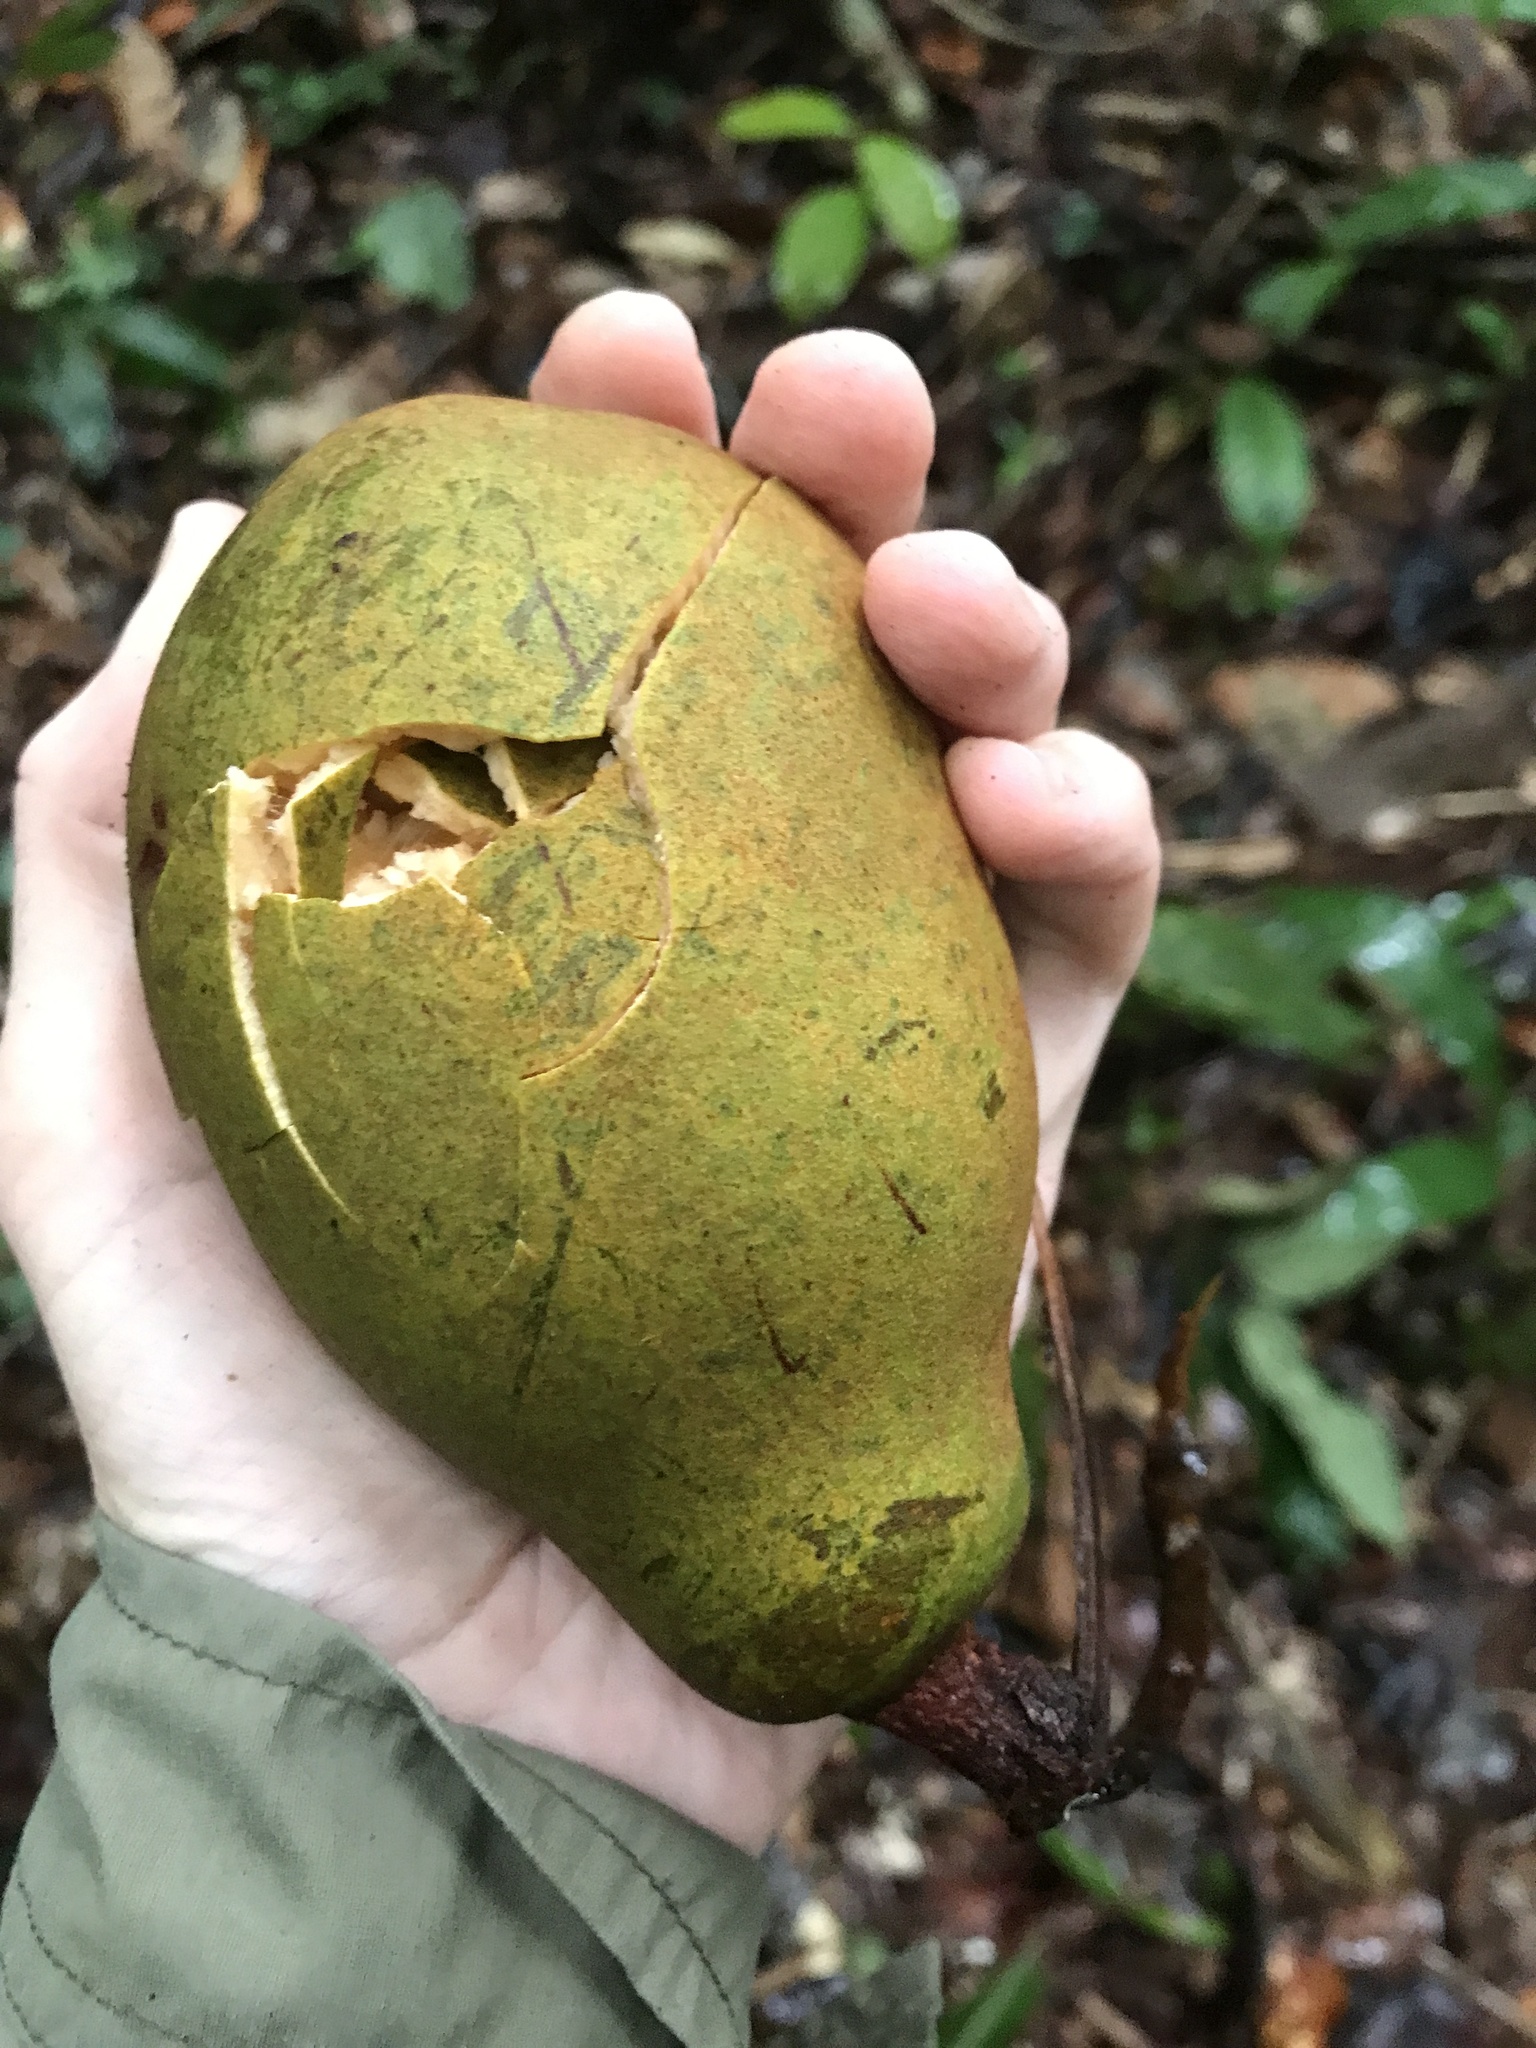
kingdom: Plantae
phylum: Tracheophyta
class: Magnoliopsida
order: Malvales
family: Malvaceae
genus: Theobroma
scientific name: Theobroma subincanum
